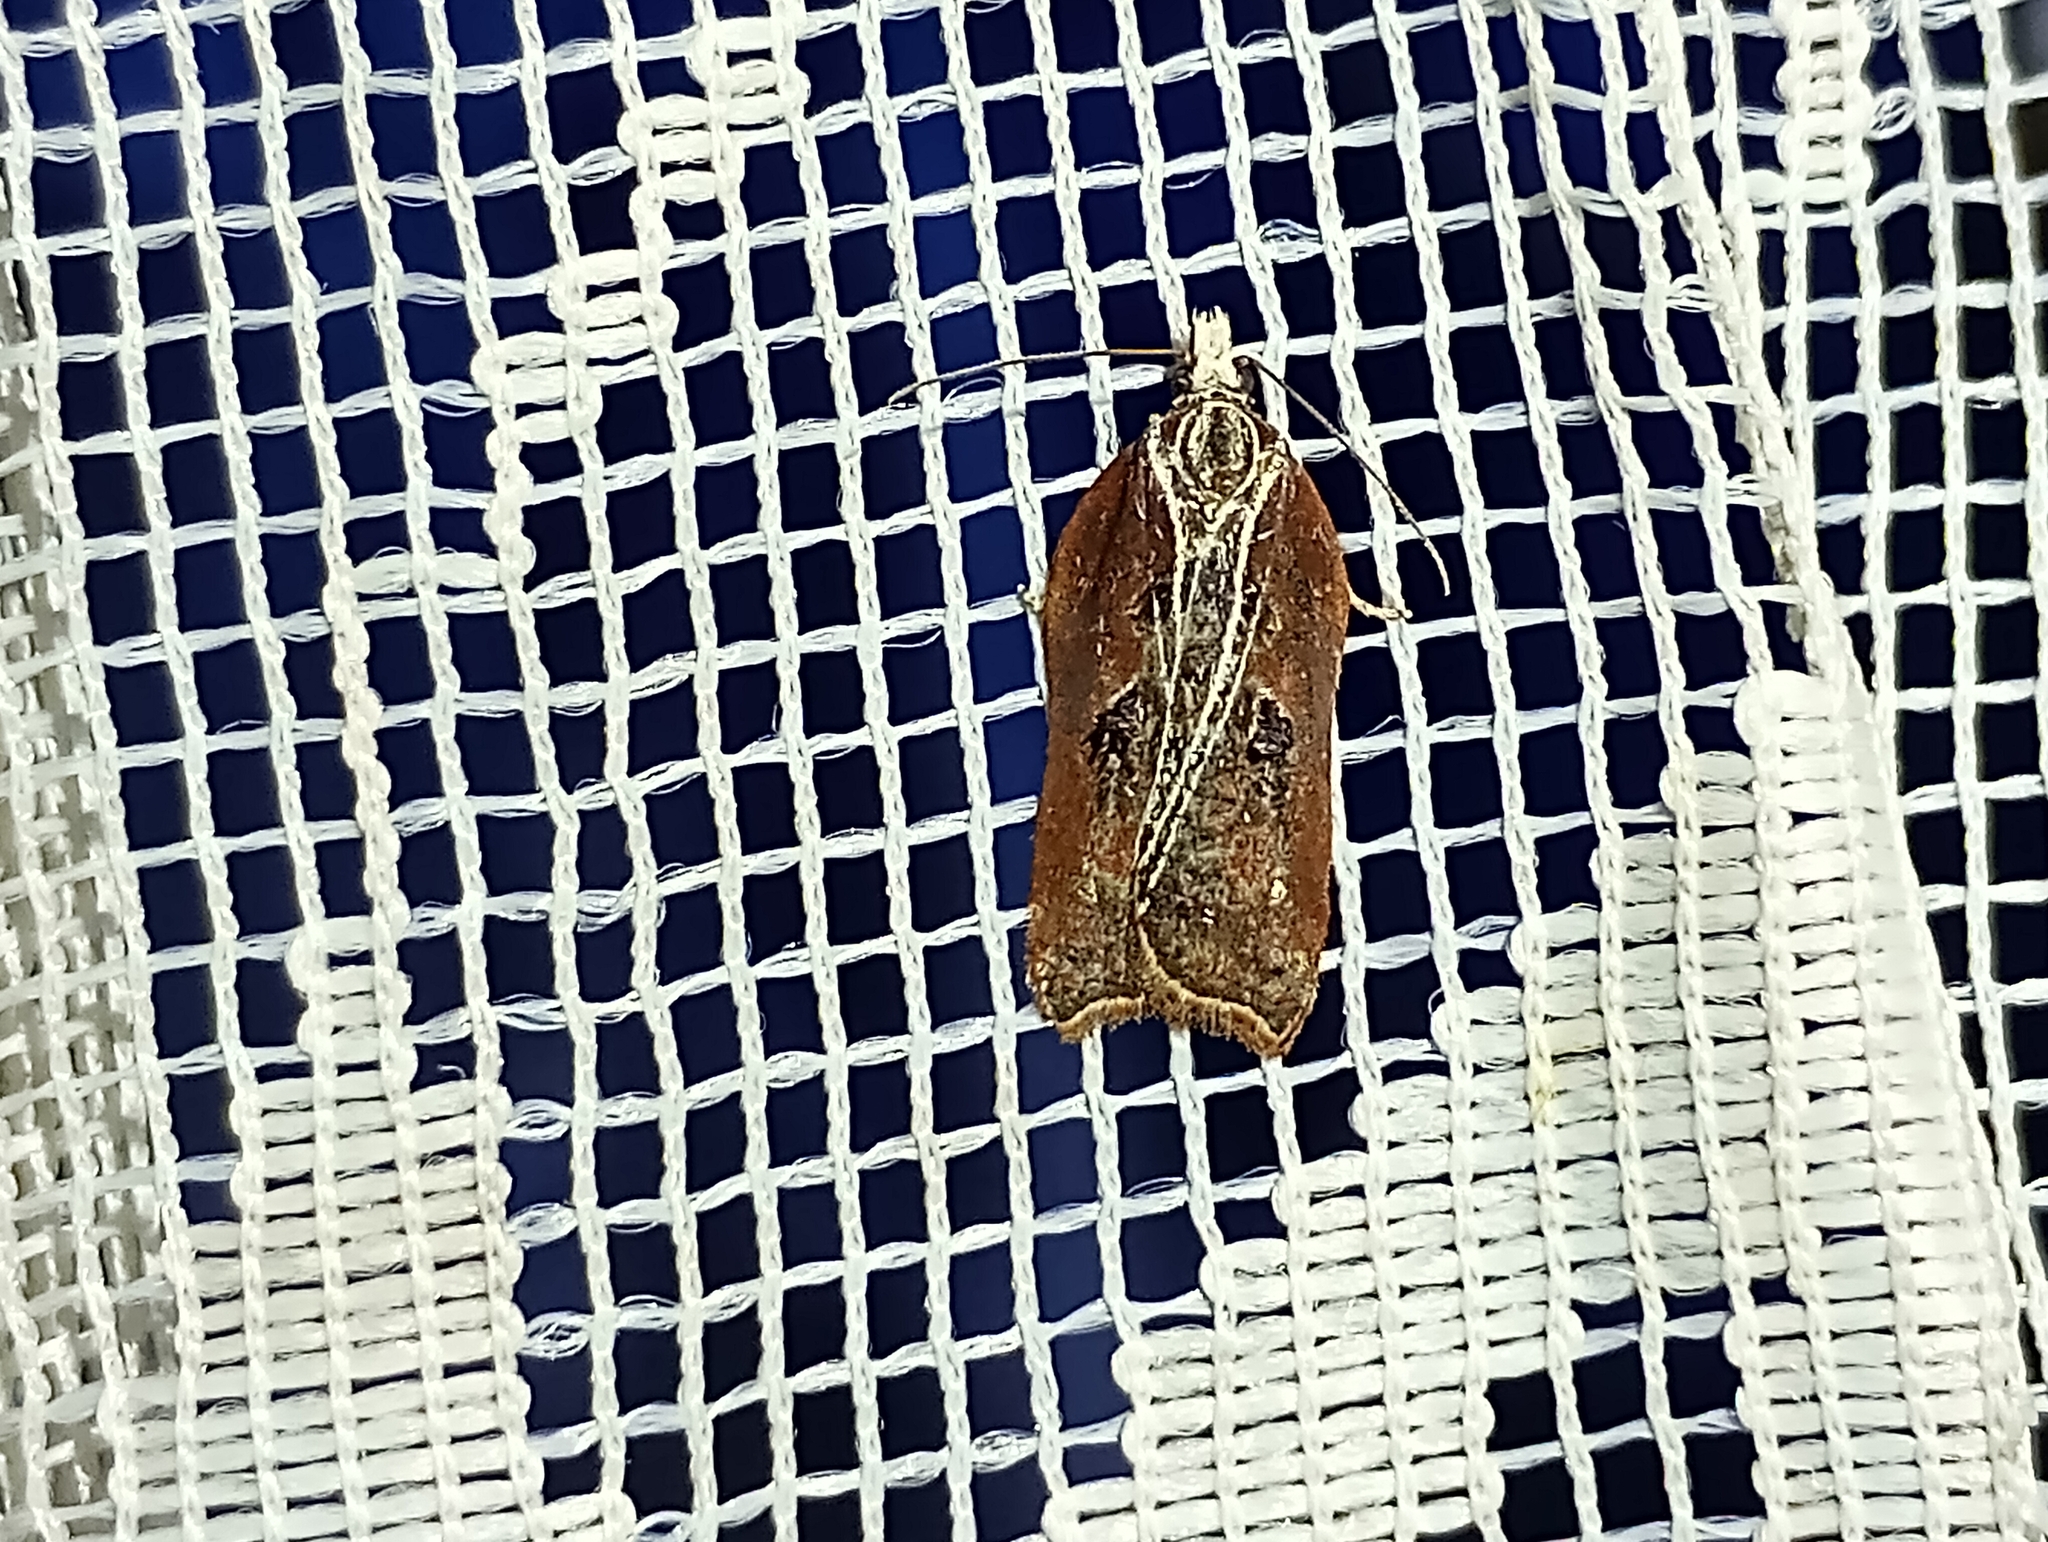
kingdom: Animalia
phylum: Arthropoda
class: Insecta
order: Lepidoptera
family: Tortricidae
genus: Acleris
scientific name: Acleris cristana
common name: Tufted button
